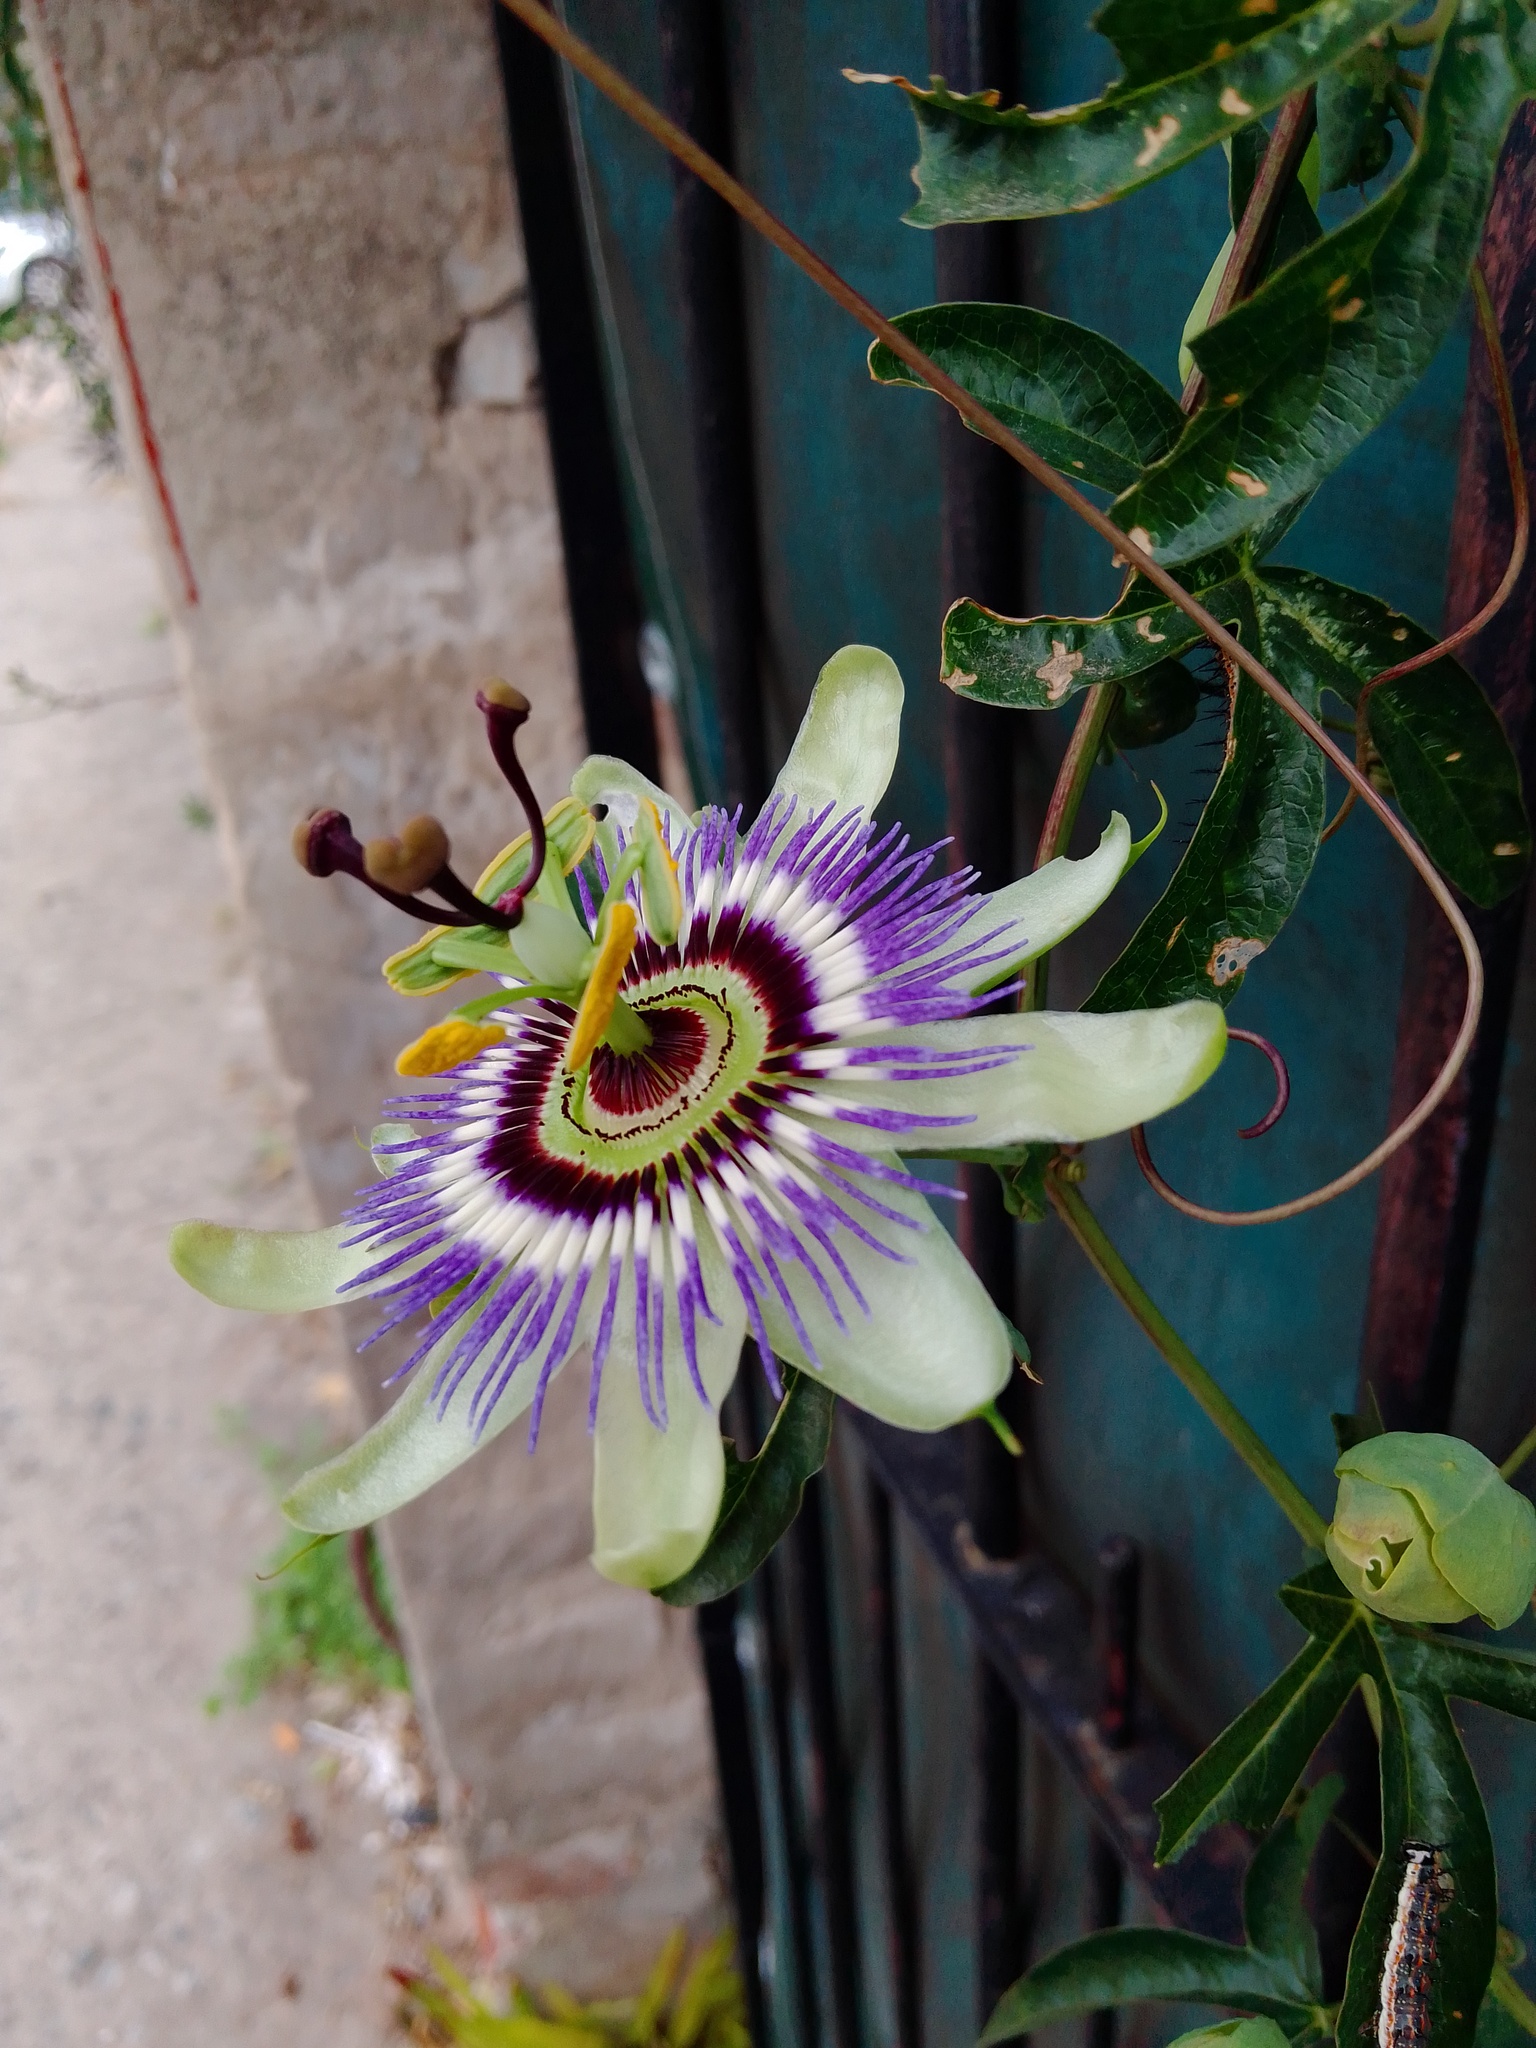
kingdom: Plantae
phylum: Tracheophyta
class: Magnoliopsida
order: Malpighiales
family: Passifloraceae
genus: Passiflora
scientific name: Passiflora caerulea
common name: Blue passionflower
